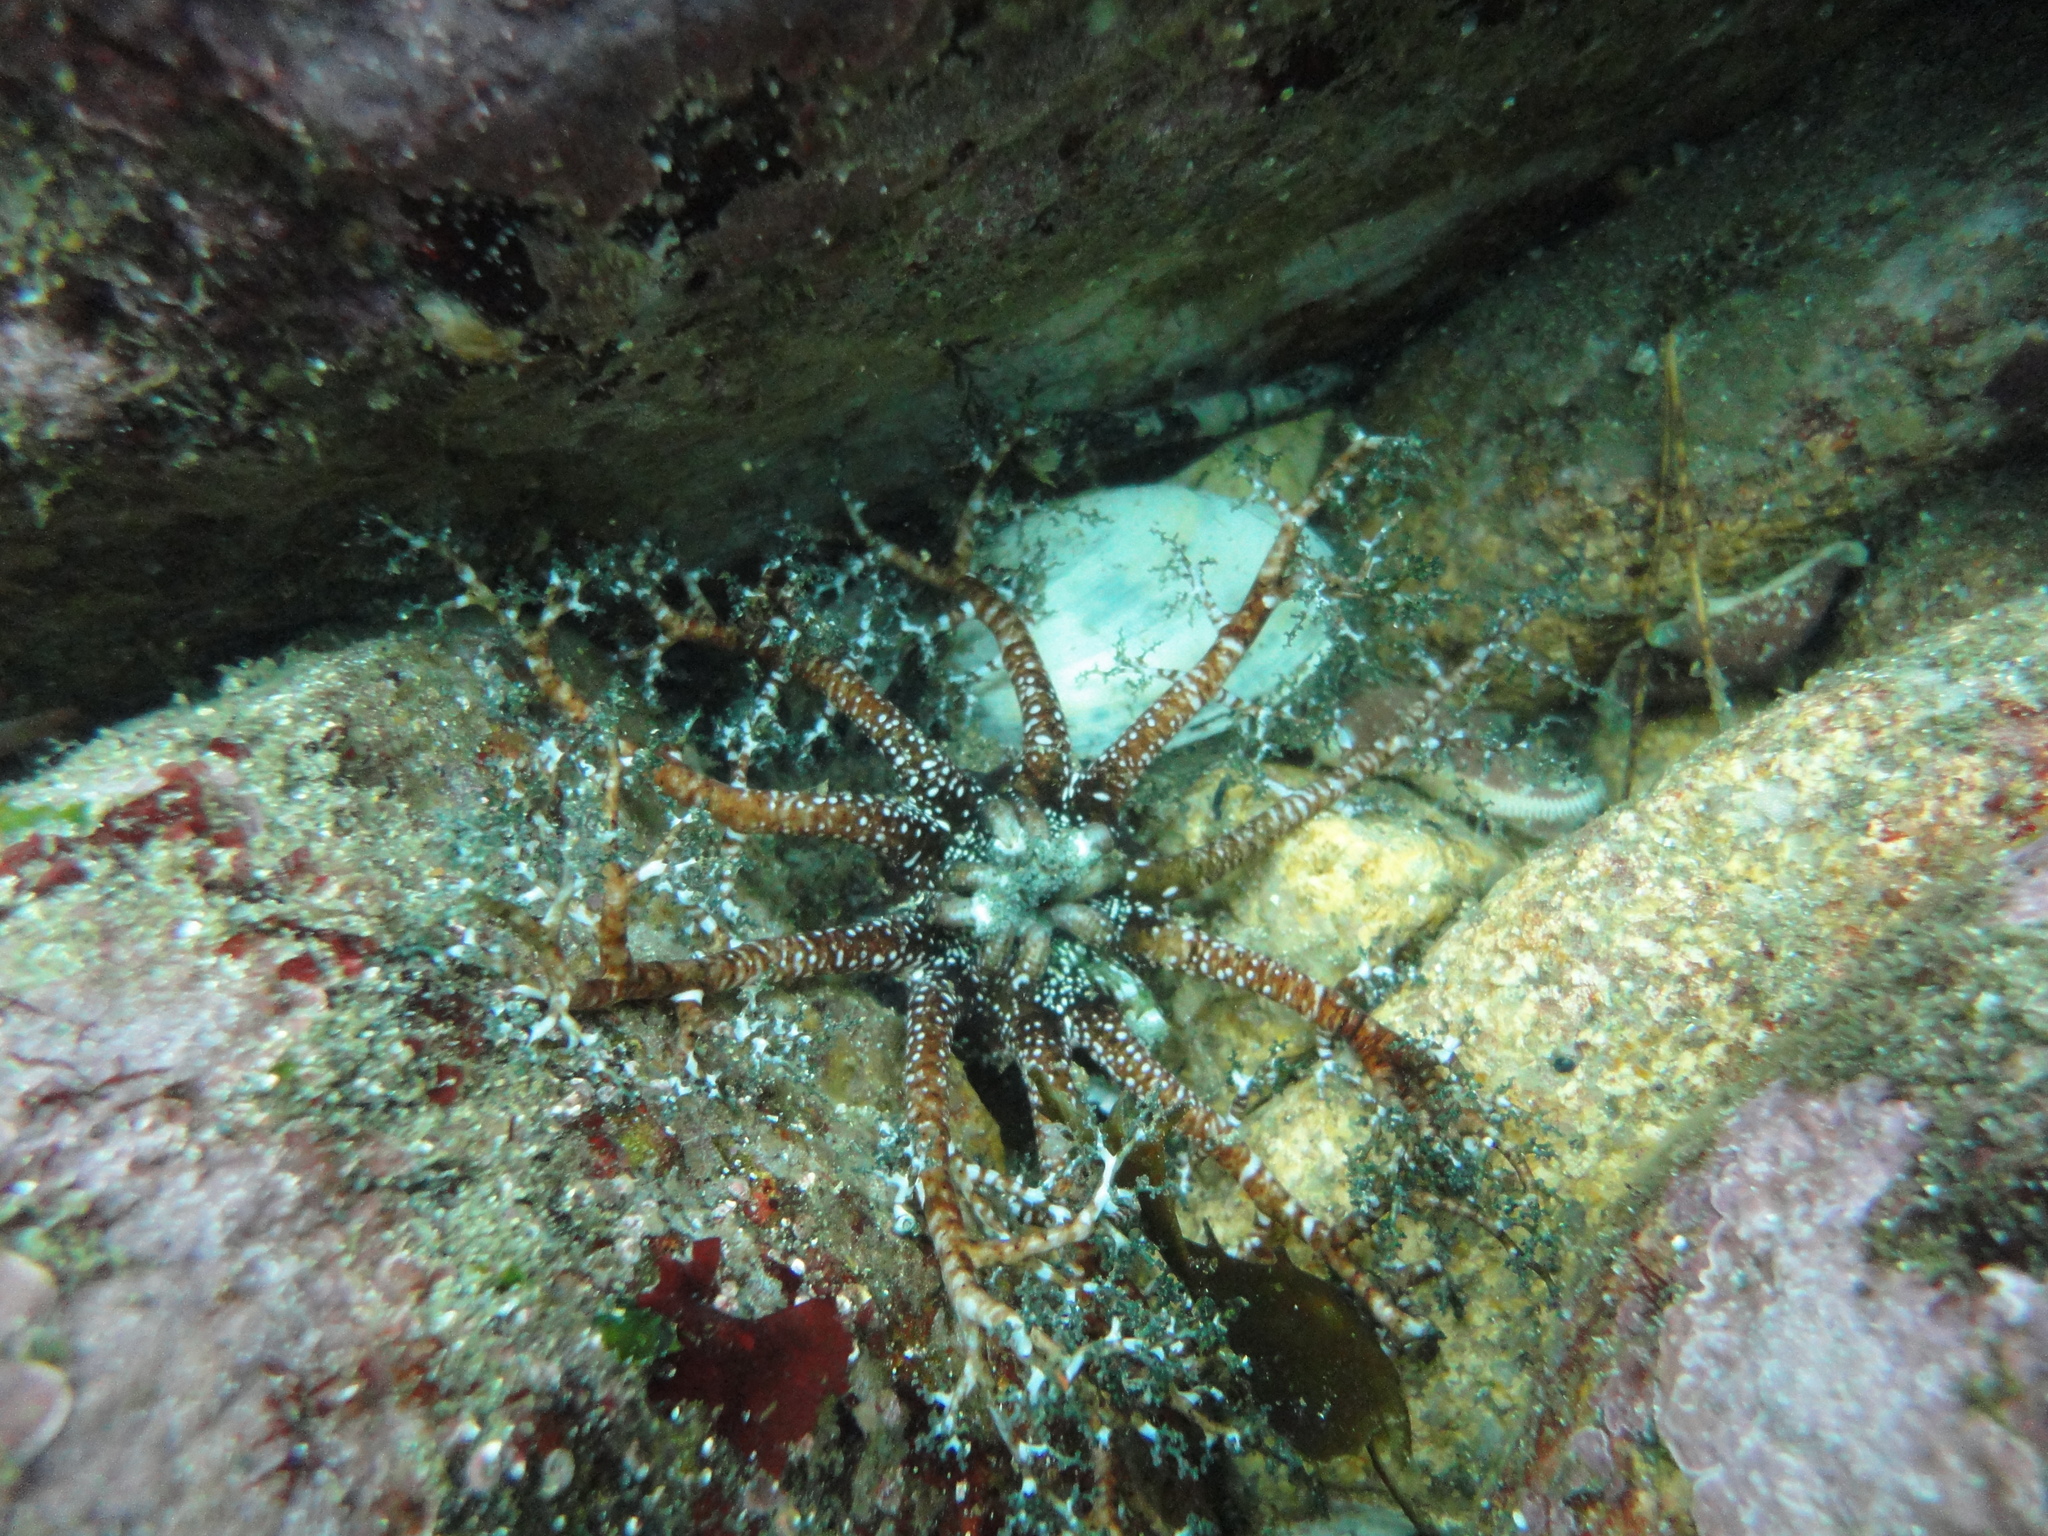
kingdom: Animalia
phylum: Echinodermata
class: Holothuroidea
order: Dendrochirotida
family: Cucumariidae
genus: Athyonidium
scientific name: Athyonidium chilensis
